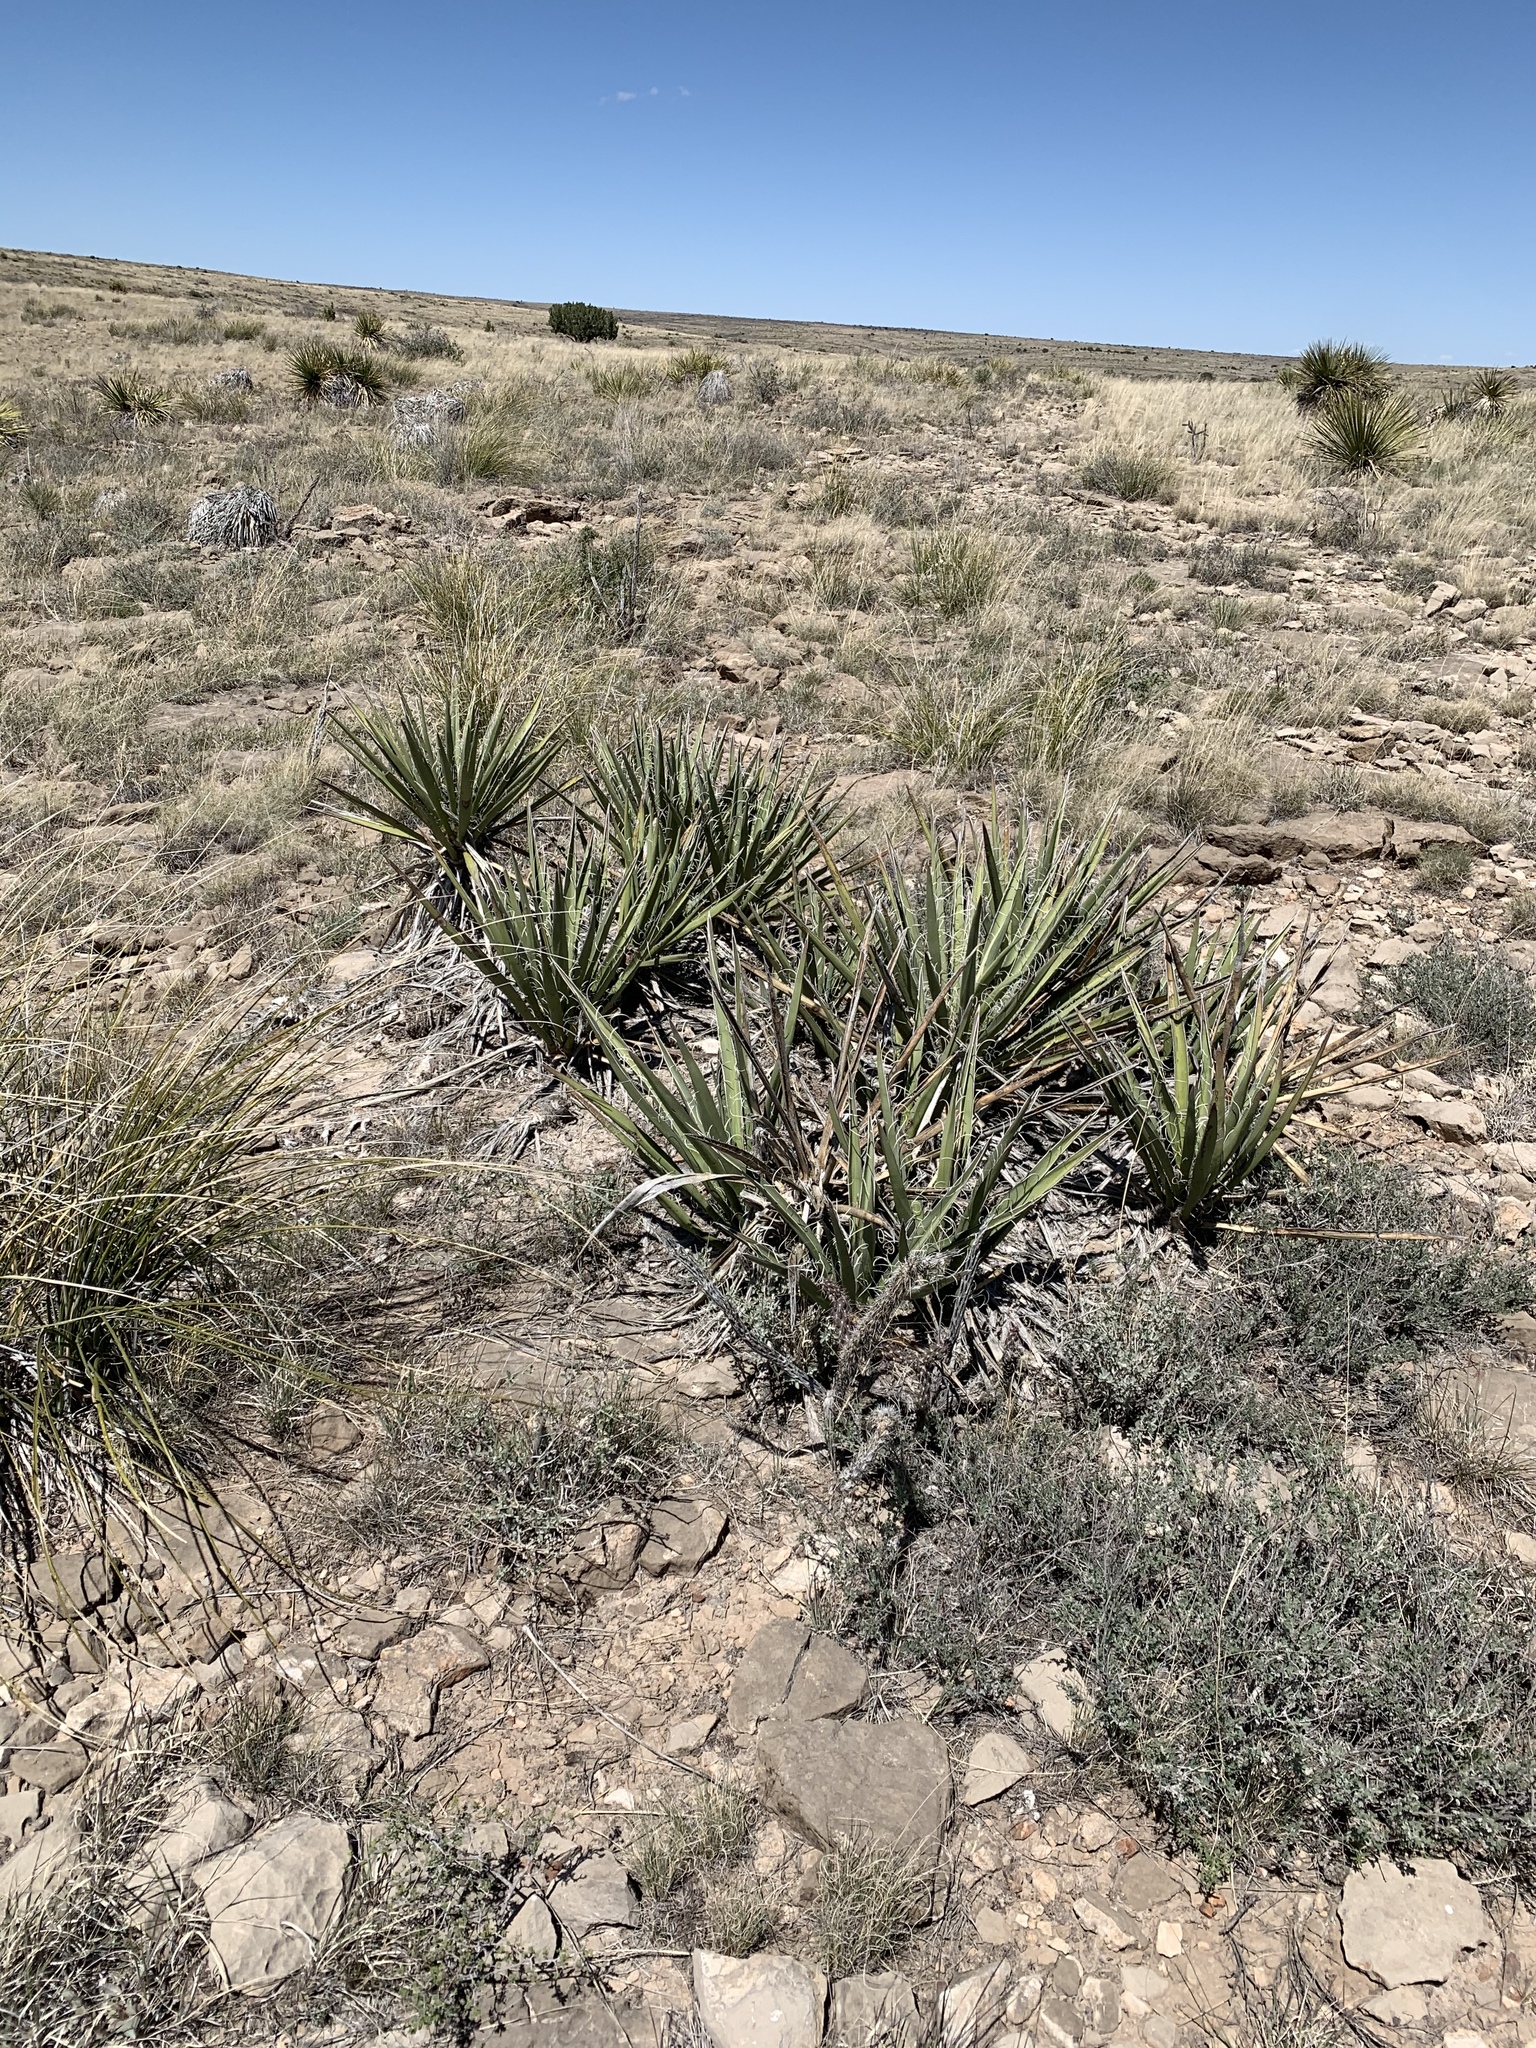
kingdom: Plantae
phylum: Tracheophyta
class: Liliopsida
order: Asparagales
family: Asparagaceae
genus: Yucca
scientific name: Yucca baccata
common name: Banana yucca
